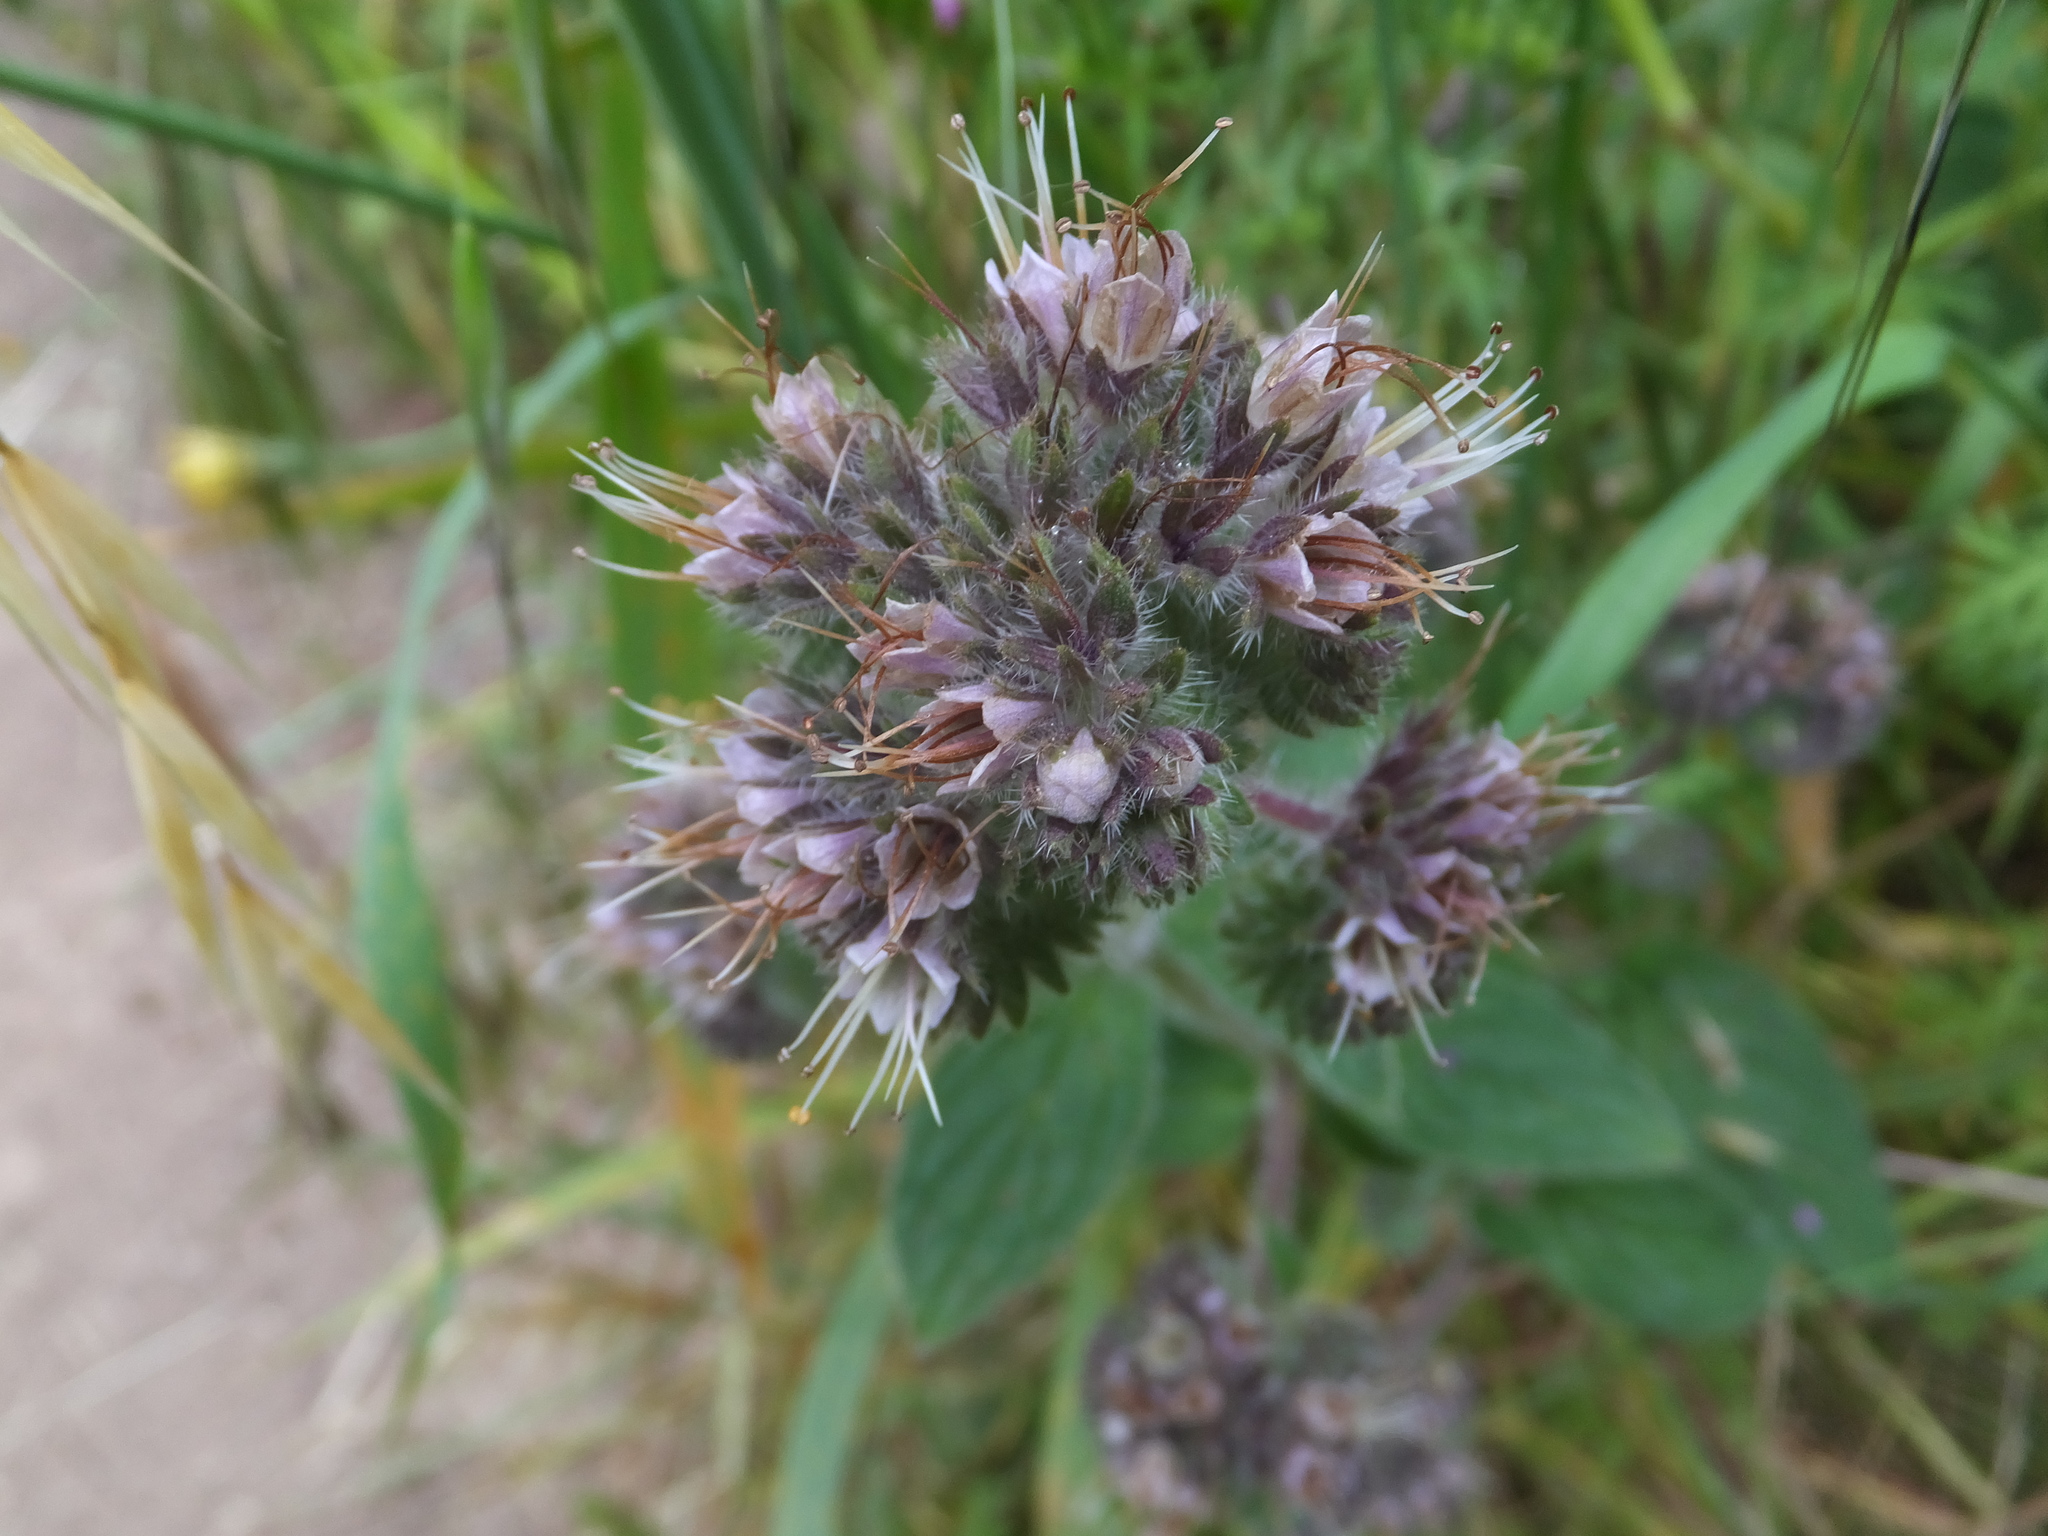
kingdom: Plantae
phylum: Tracheophyta
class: Magnoliopsida
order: Boraginales
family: Hydrophyllaceae
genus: Phacelia
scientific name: Phacelia californica
